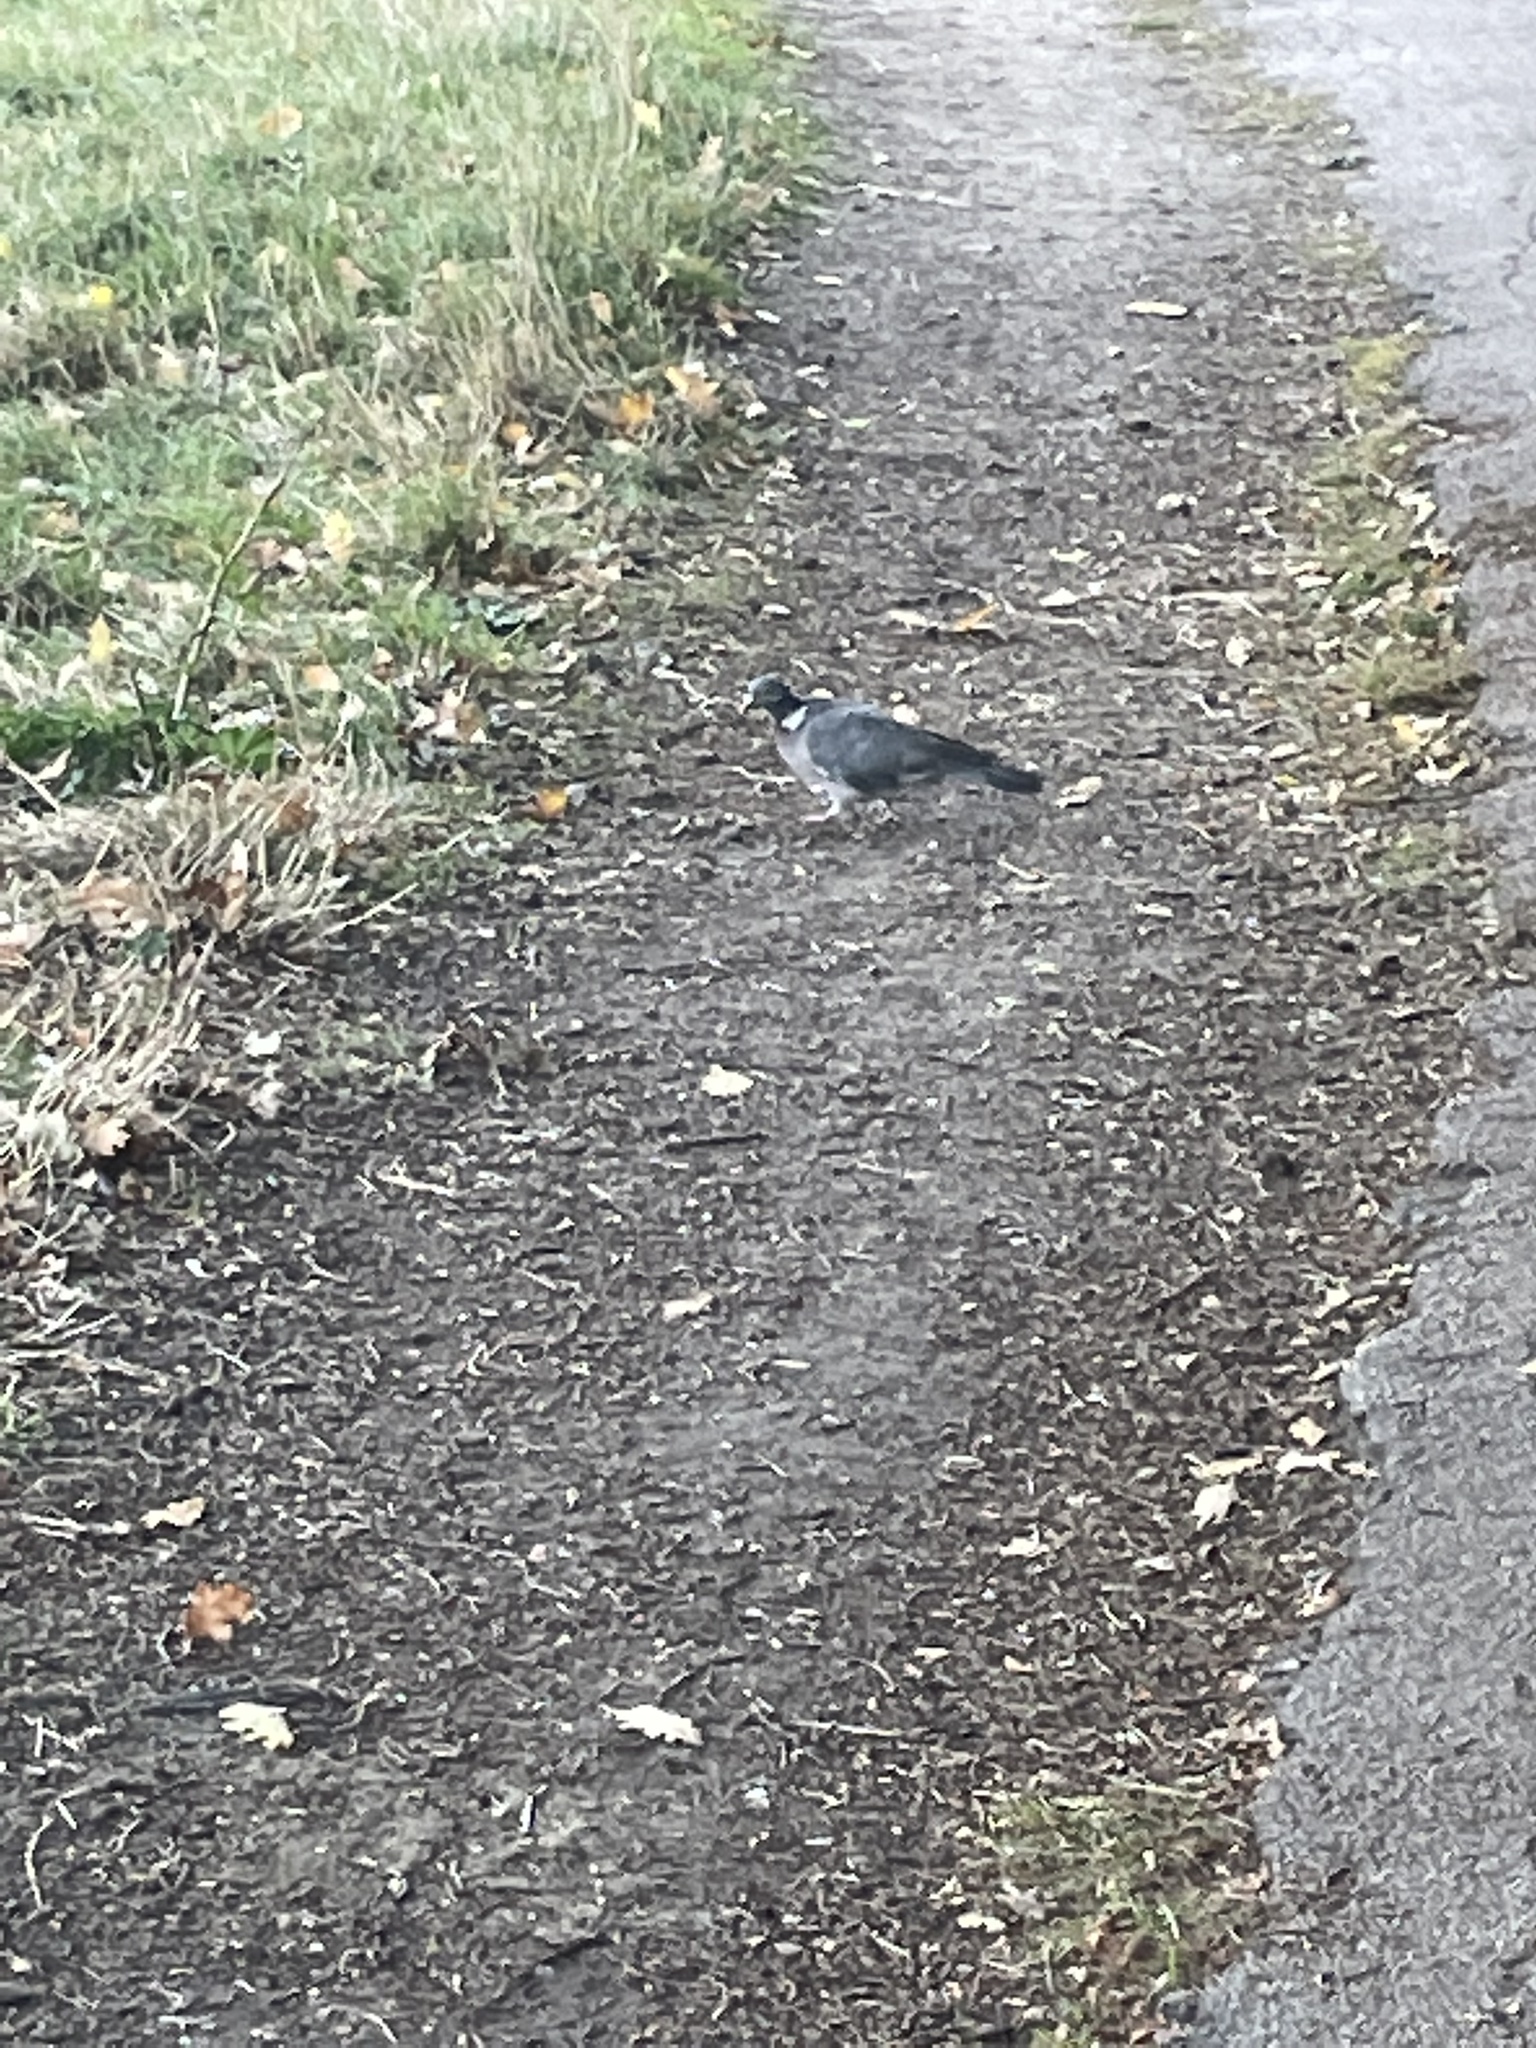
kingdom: Animalia
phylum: Chordata
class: Aves
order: Columbiformes
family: Columbidae
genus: Columba
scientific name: Columba palumbus
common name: Common wood pigeon
